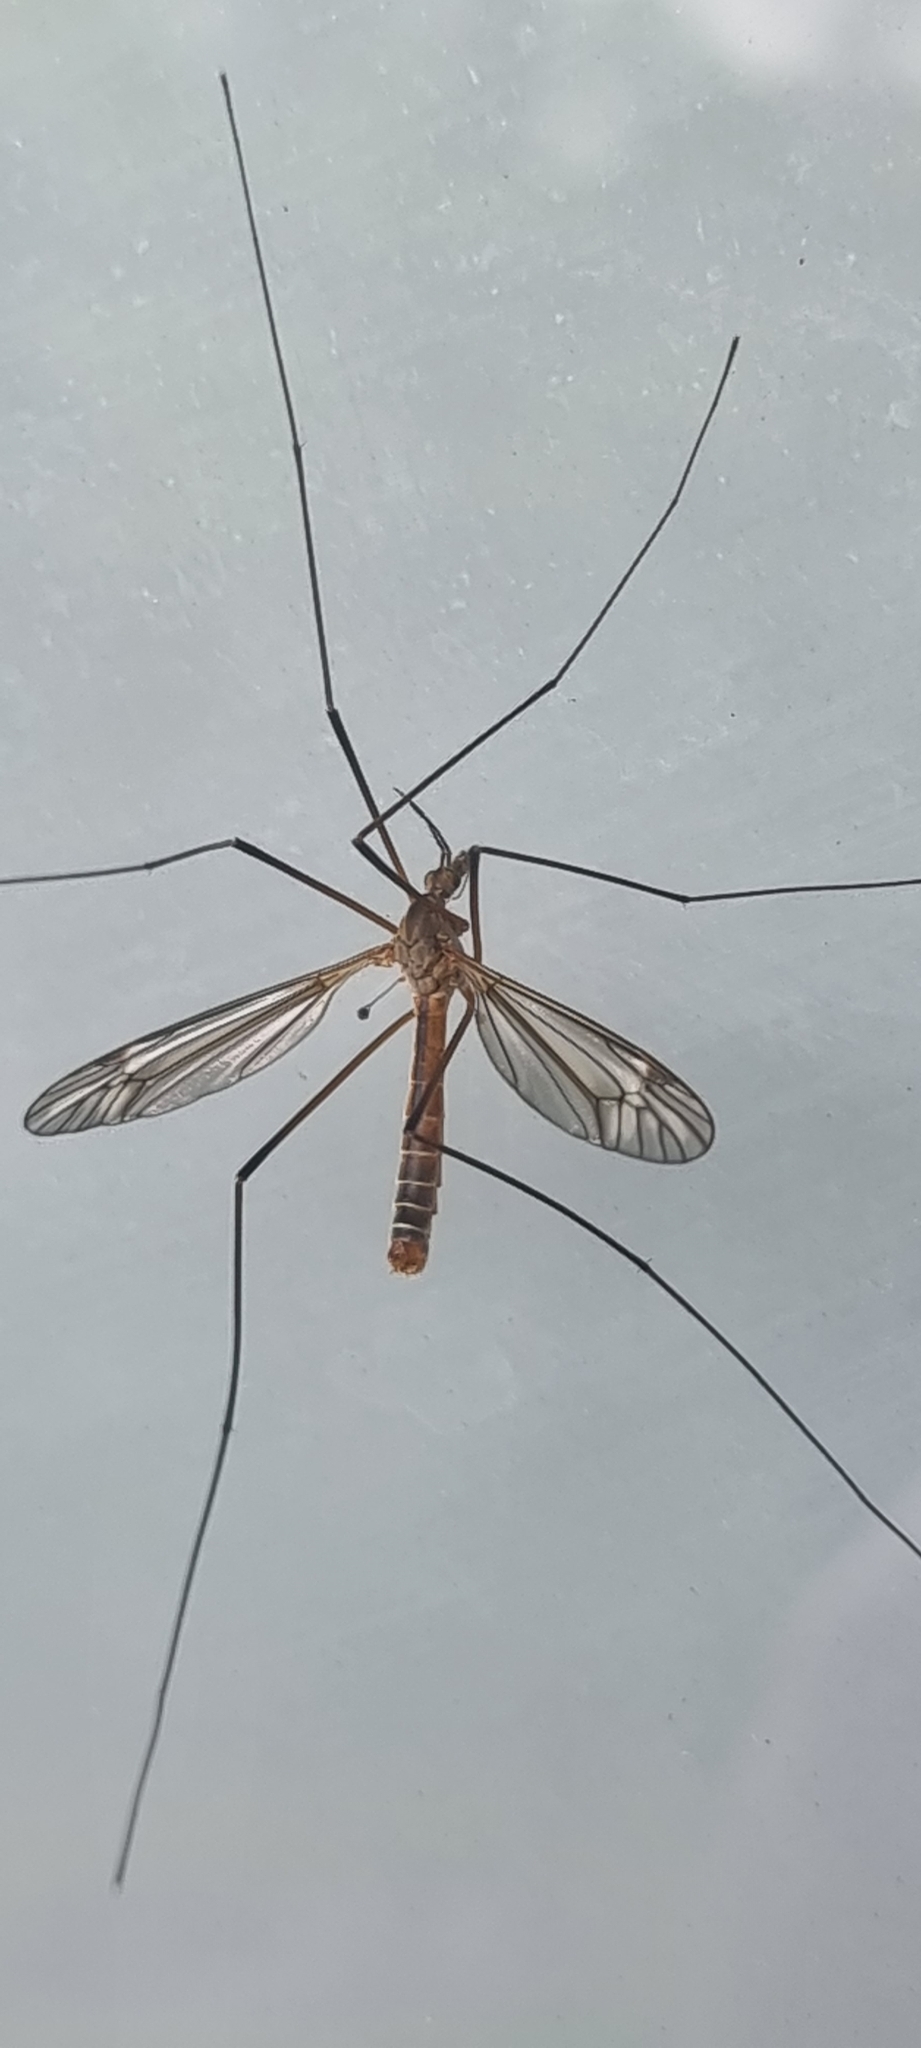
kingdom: Animalia
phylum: Arthropoda
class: Insecta
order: Diptera
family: Tipulidae
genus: Tipula
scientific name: Tipula vernalis
